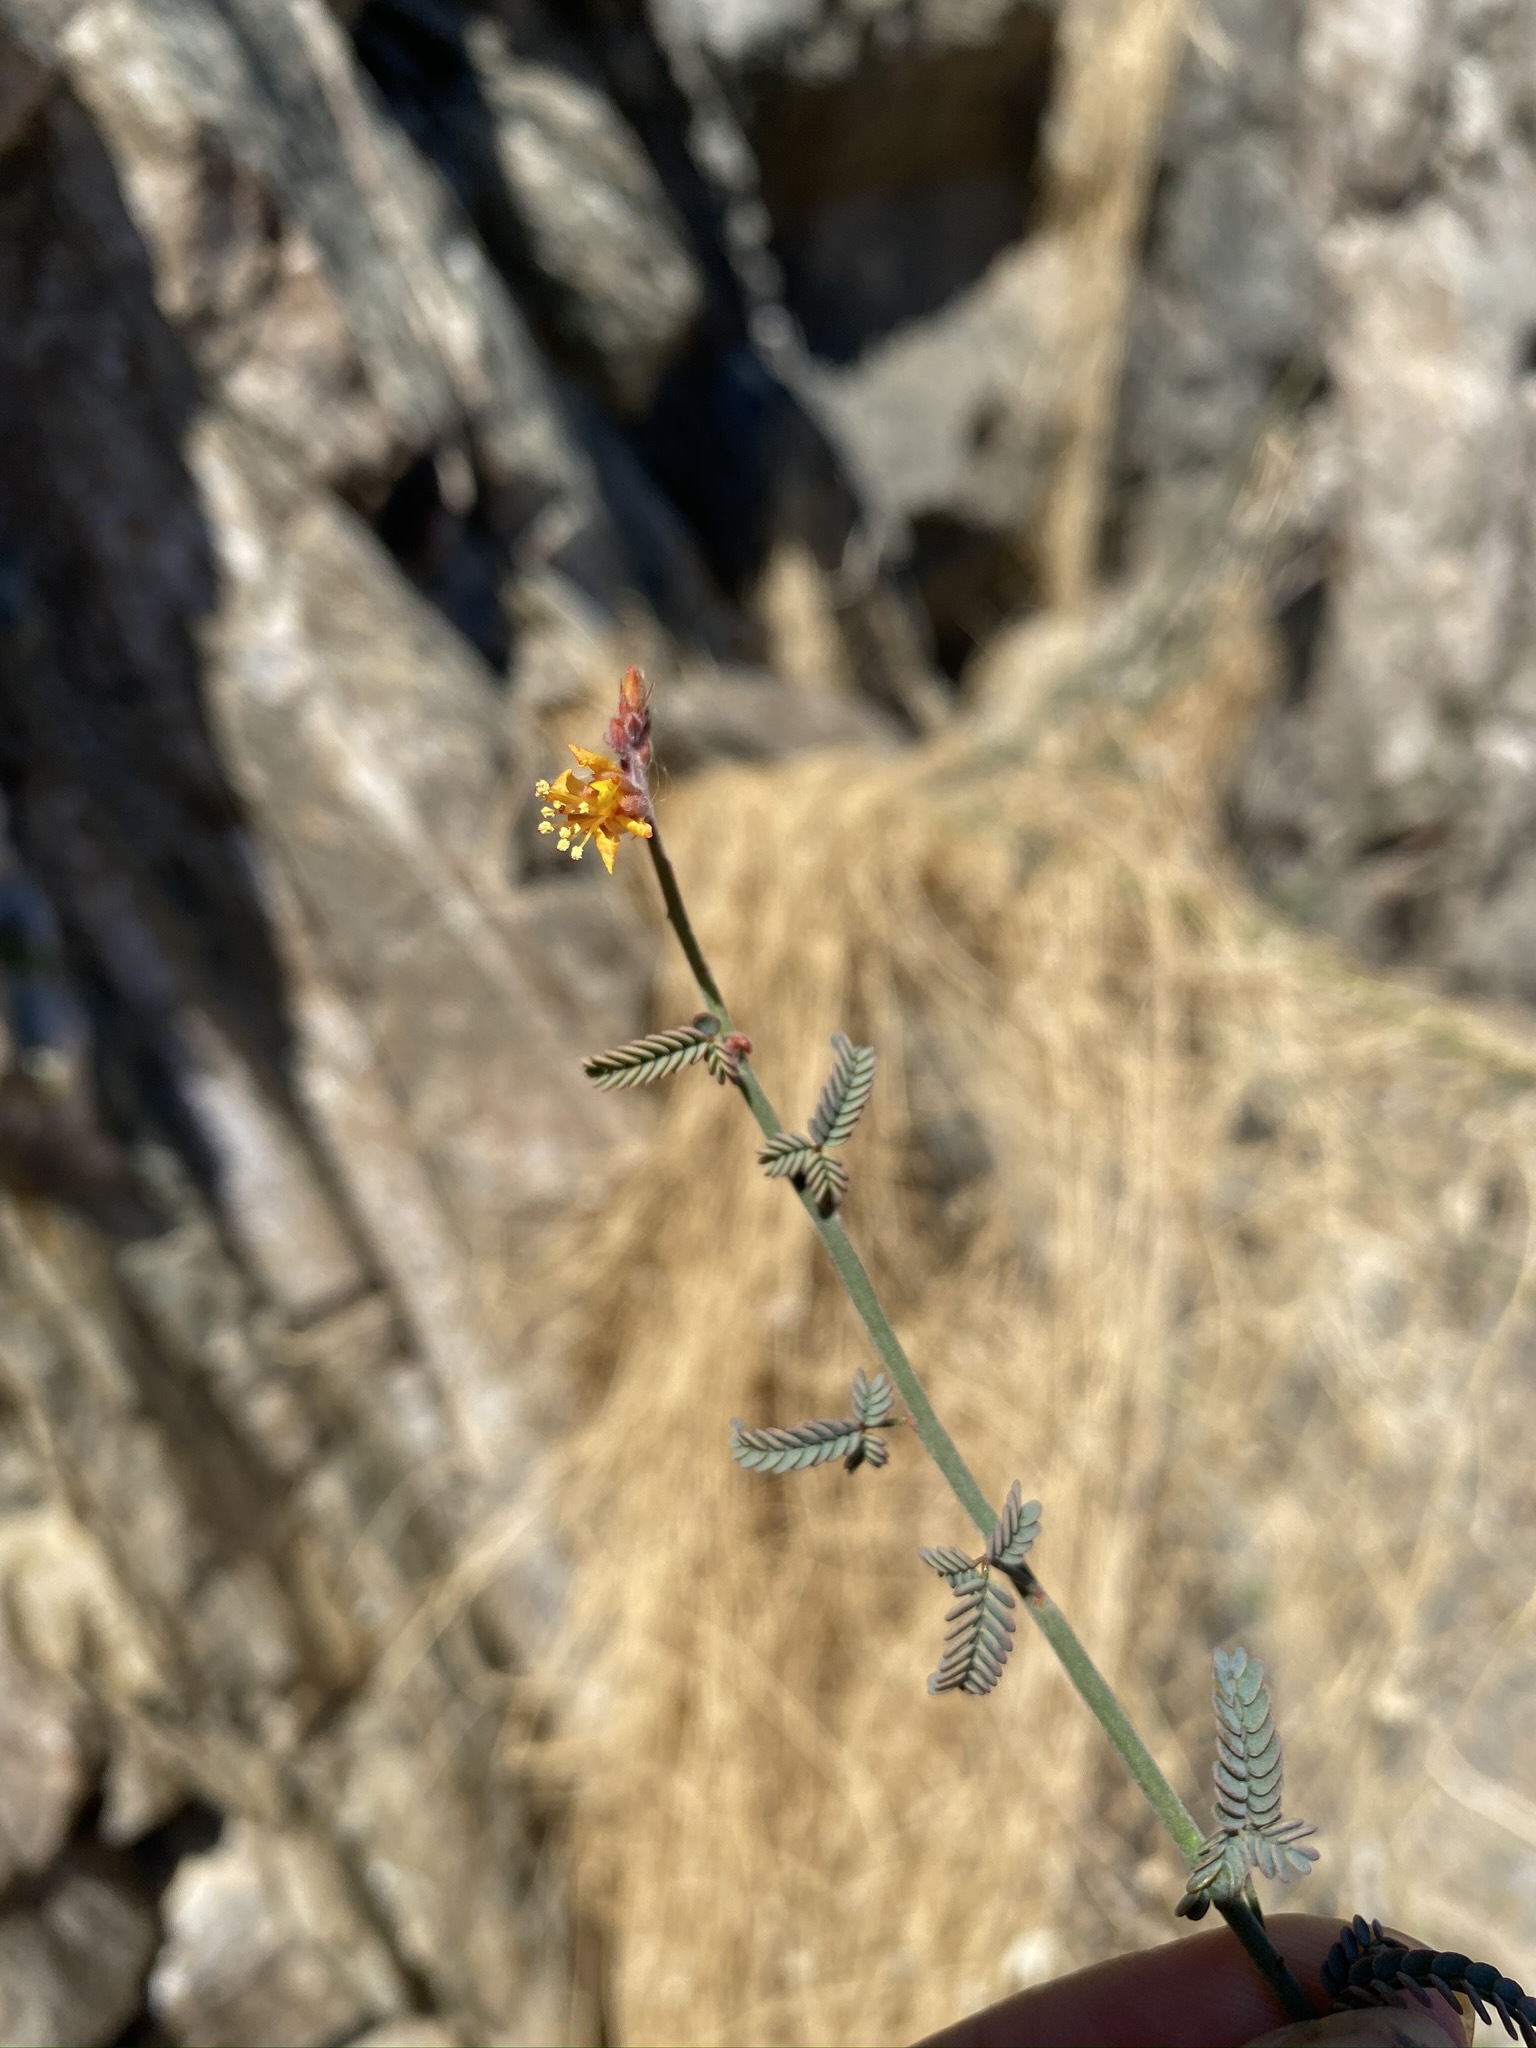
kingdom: Plantae
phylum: Tracheophyta
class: Magnoliopsida
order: Fabales
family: Fabaceae
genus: Hoffmannseggia
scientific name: Hoffmannseggia microphylla
